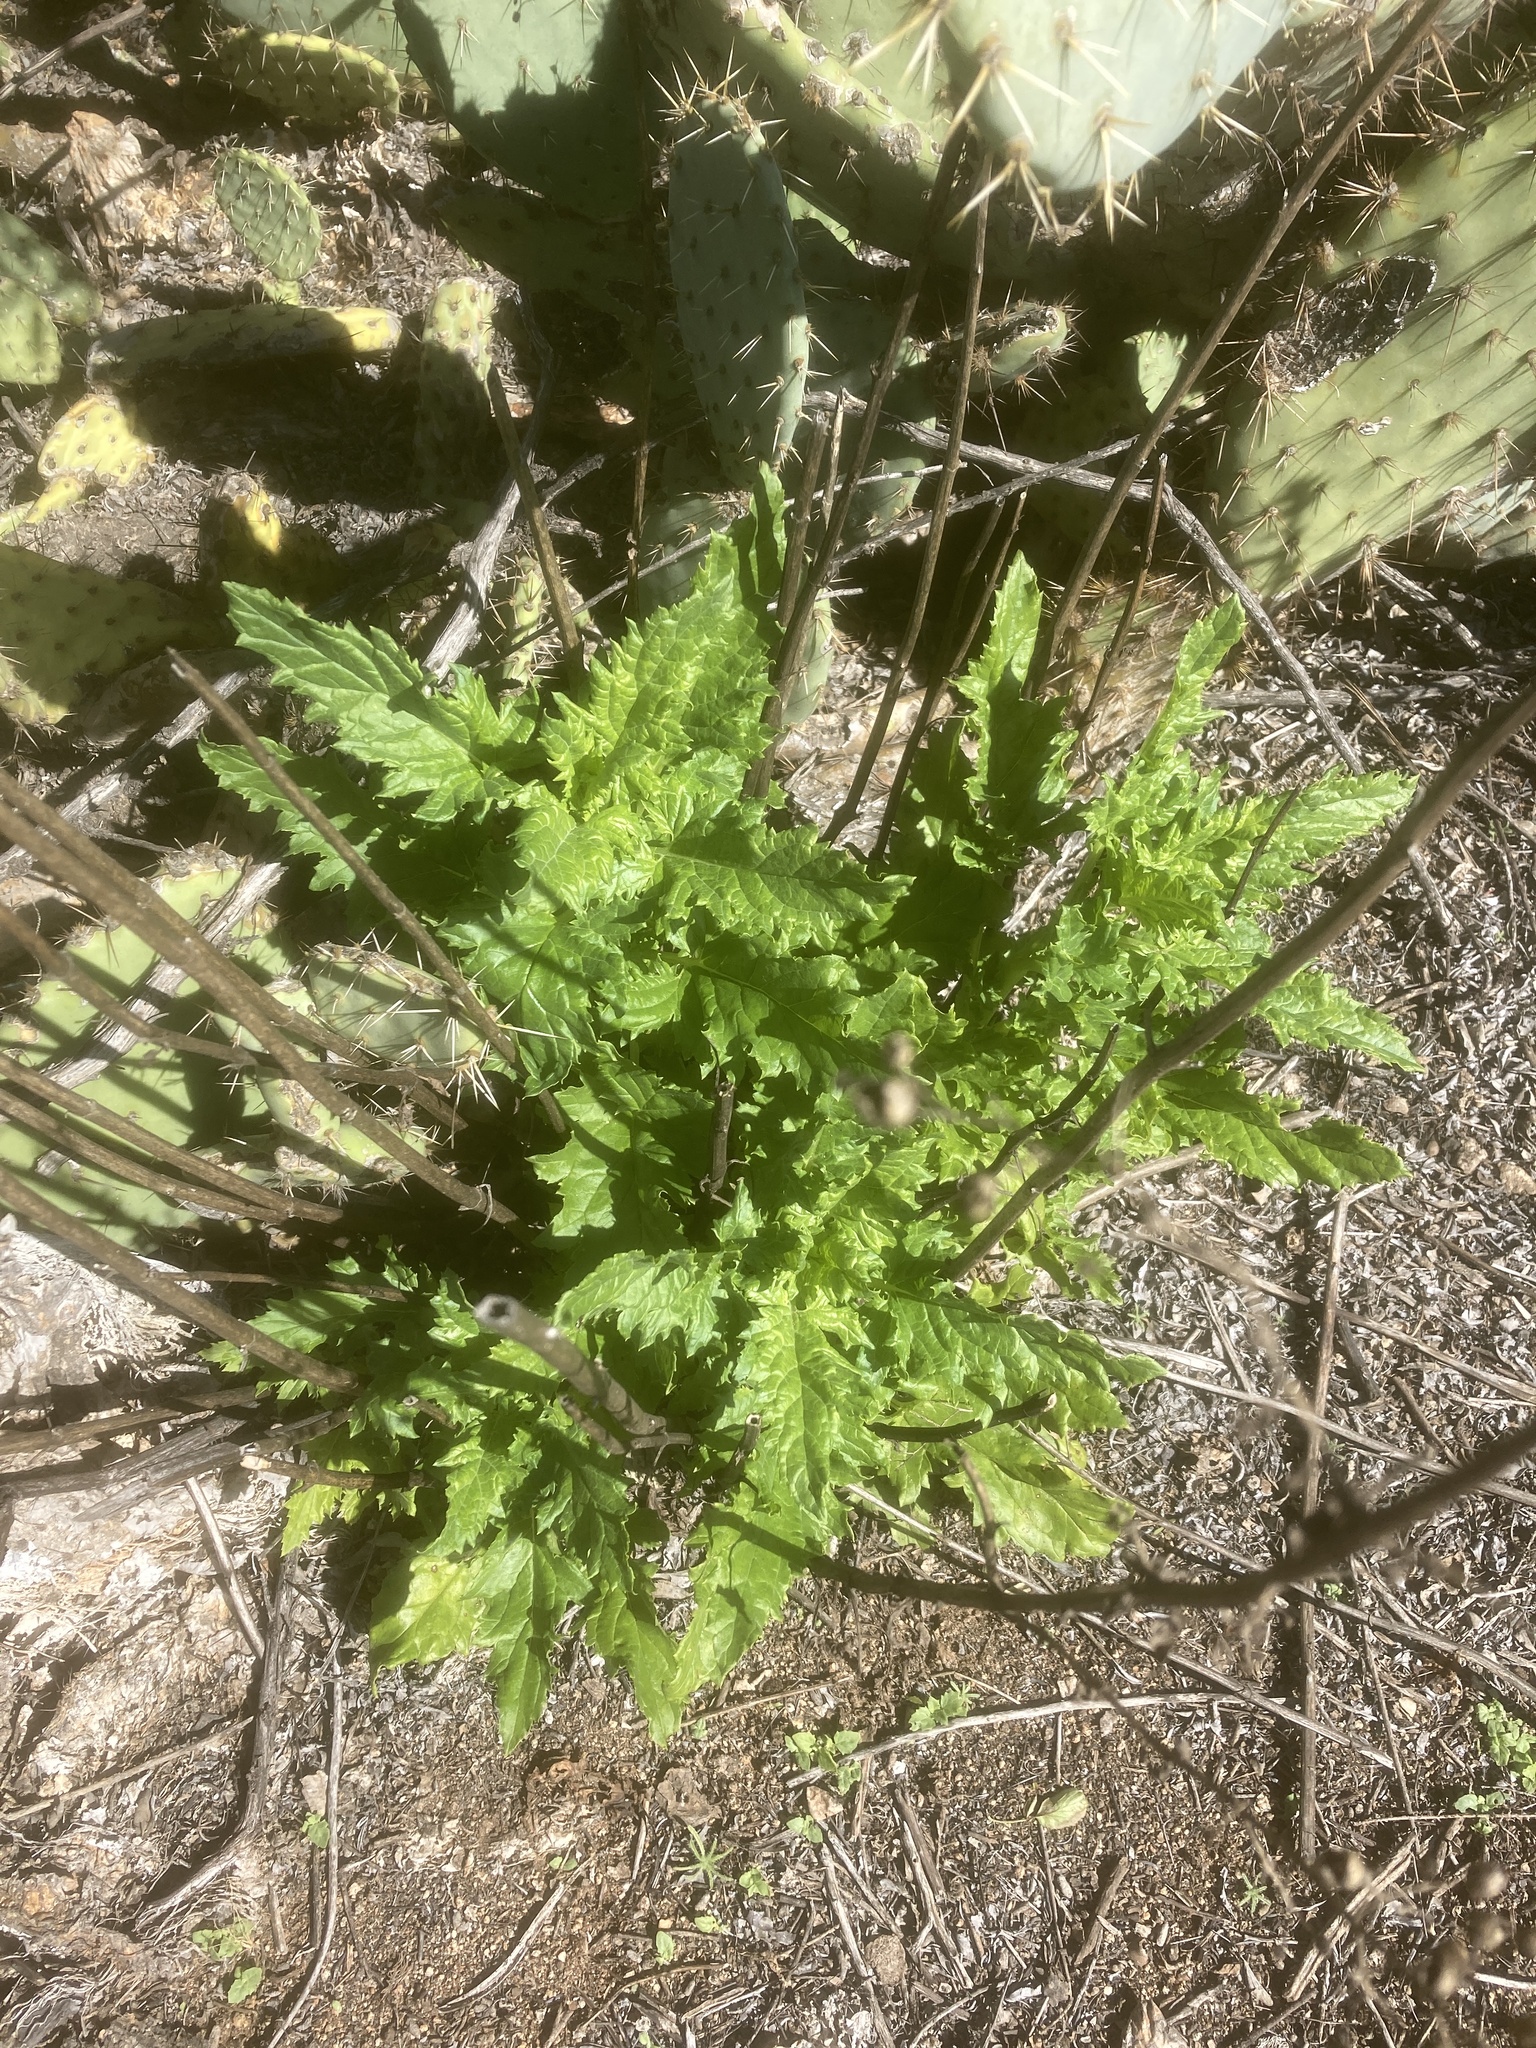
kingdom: Plantae
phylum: Tracheophyta
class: Magnoliopsida
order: Lamiales
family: Scrophulariaceae
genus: Scrophularia
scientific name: Scrophularia californica
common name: California figwort
